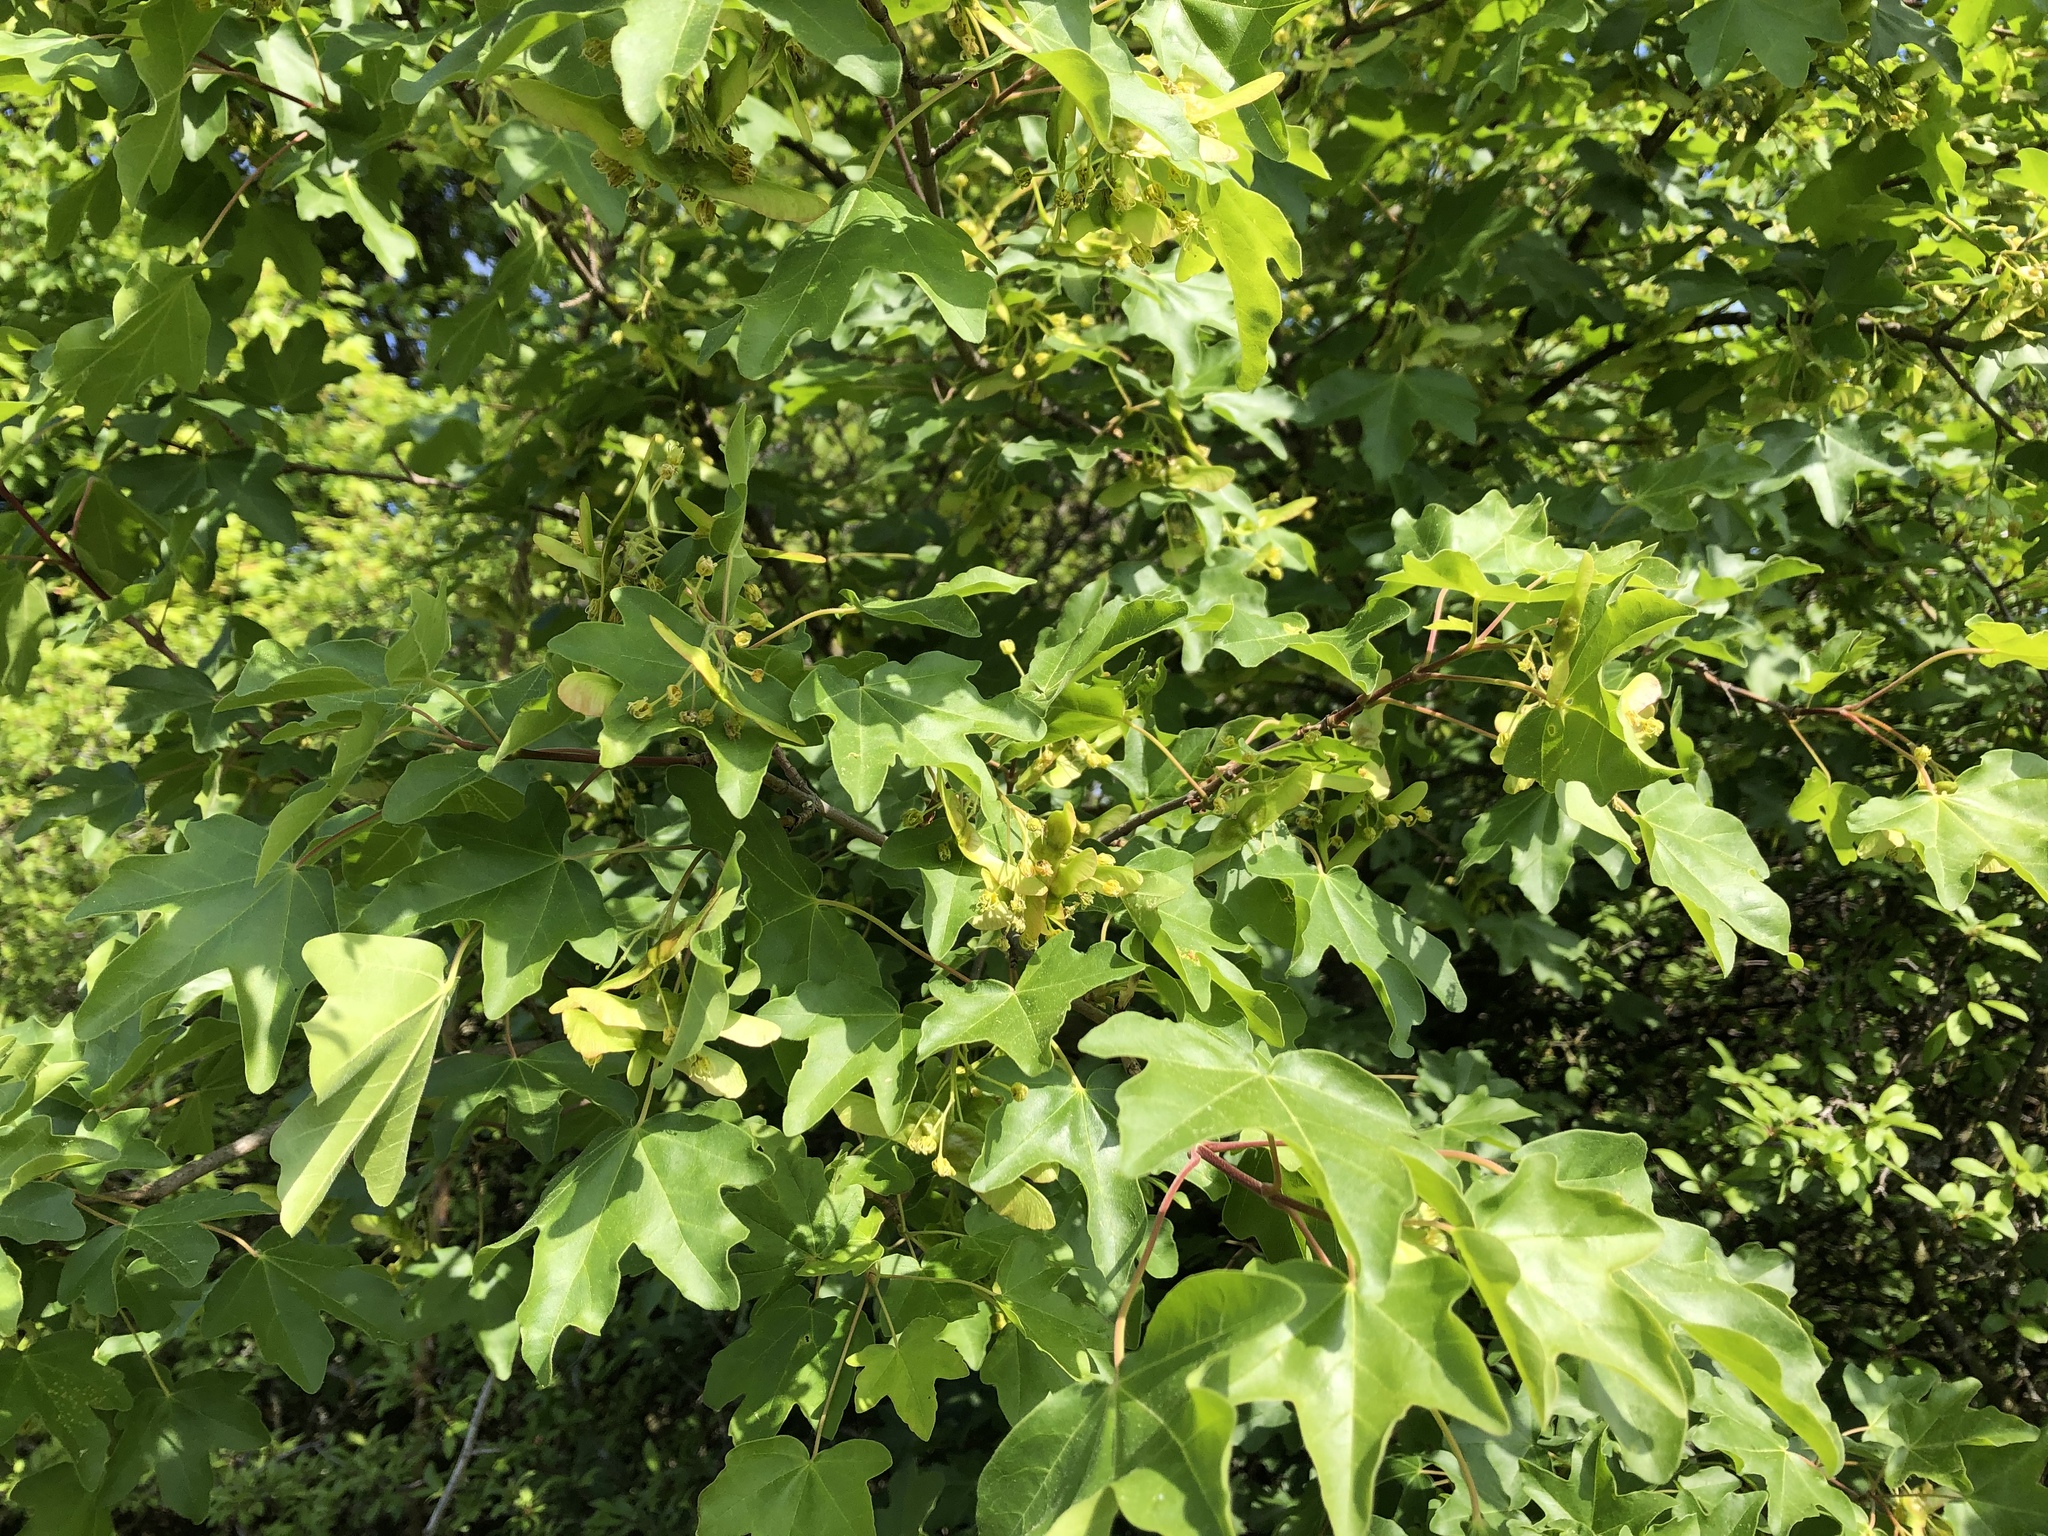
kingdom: Plantae
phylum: Tracheophyta
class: Magnoliopsida
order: Sapindales
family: Sapindaceae
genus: Acer
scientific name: Acer campestre
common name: Field maple
